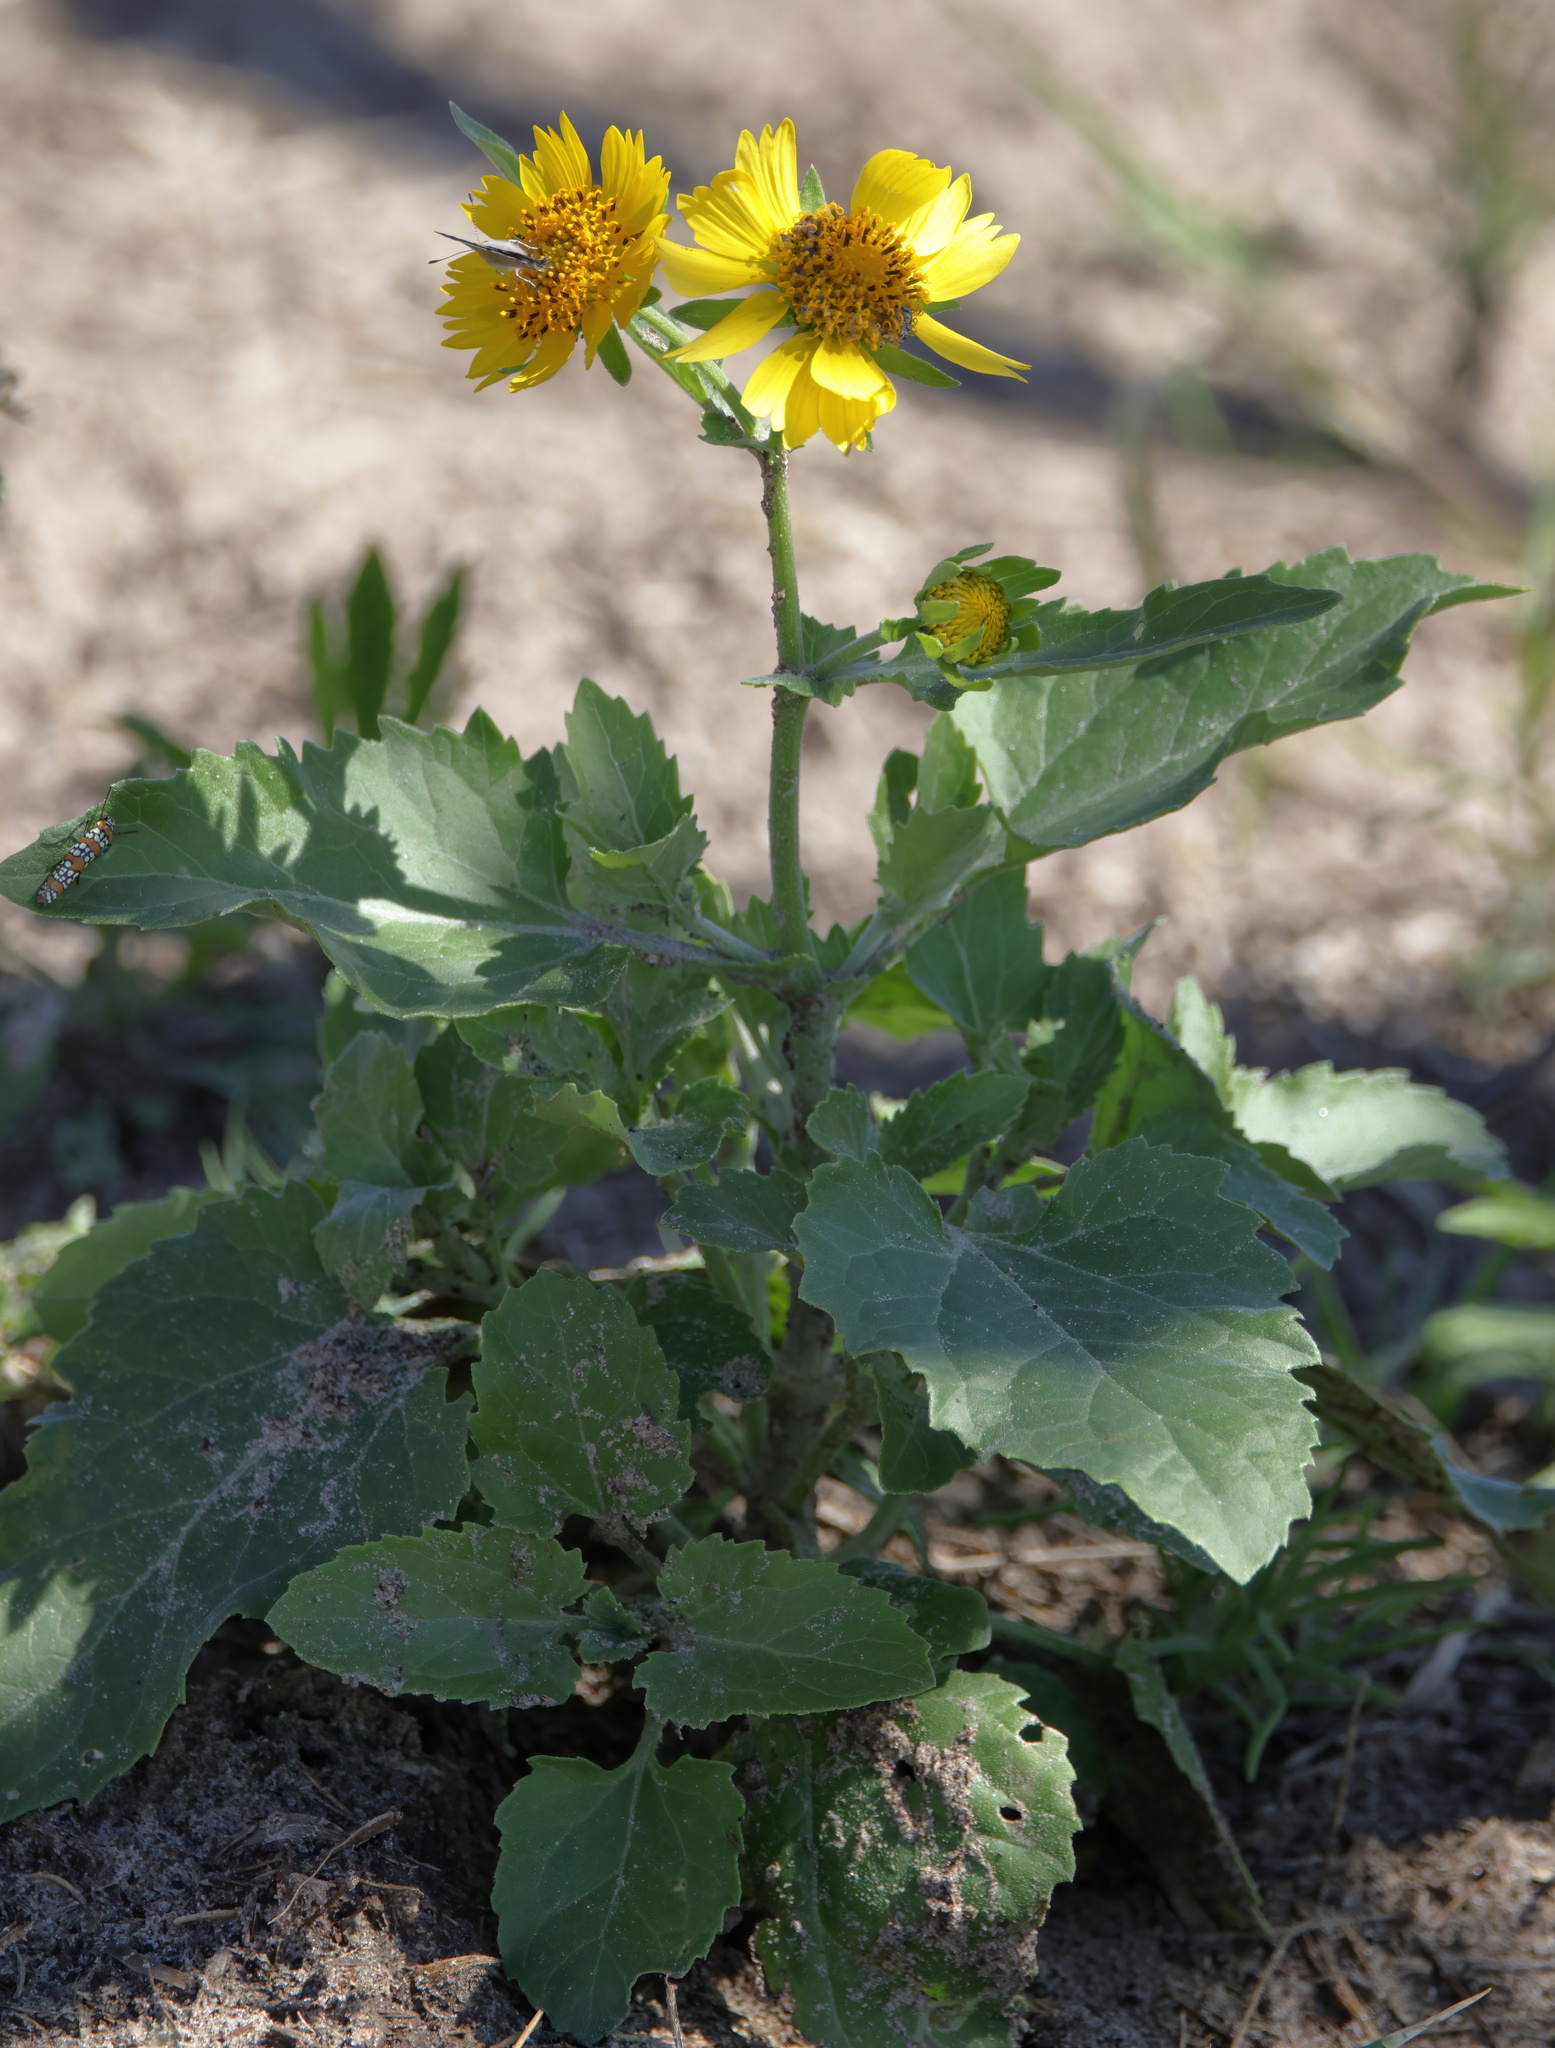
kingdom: Plantae
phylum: Tracheophyta
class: Magnoliopsida
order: Asterales
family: Asteraceae
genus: Verbesina
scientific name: Verbesina encelioides
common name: Golden crownbeard
